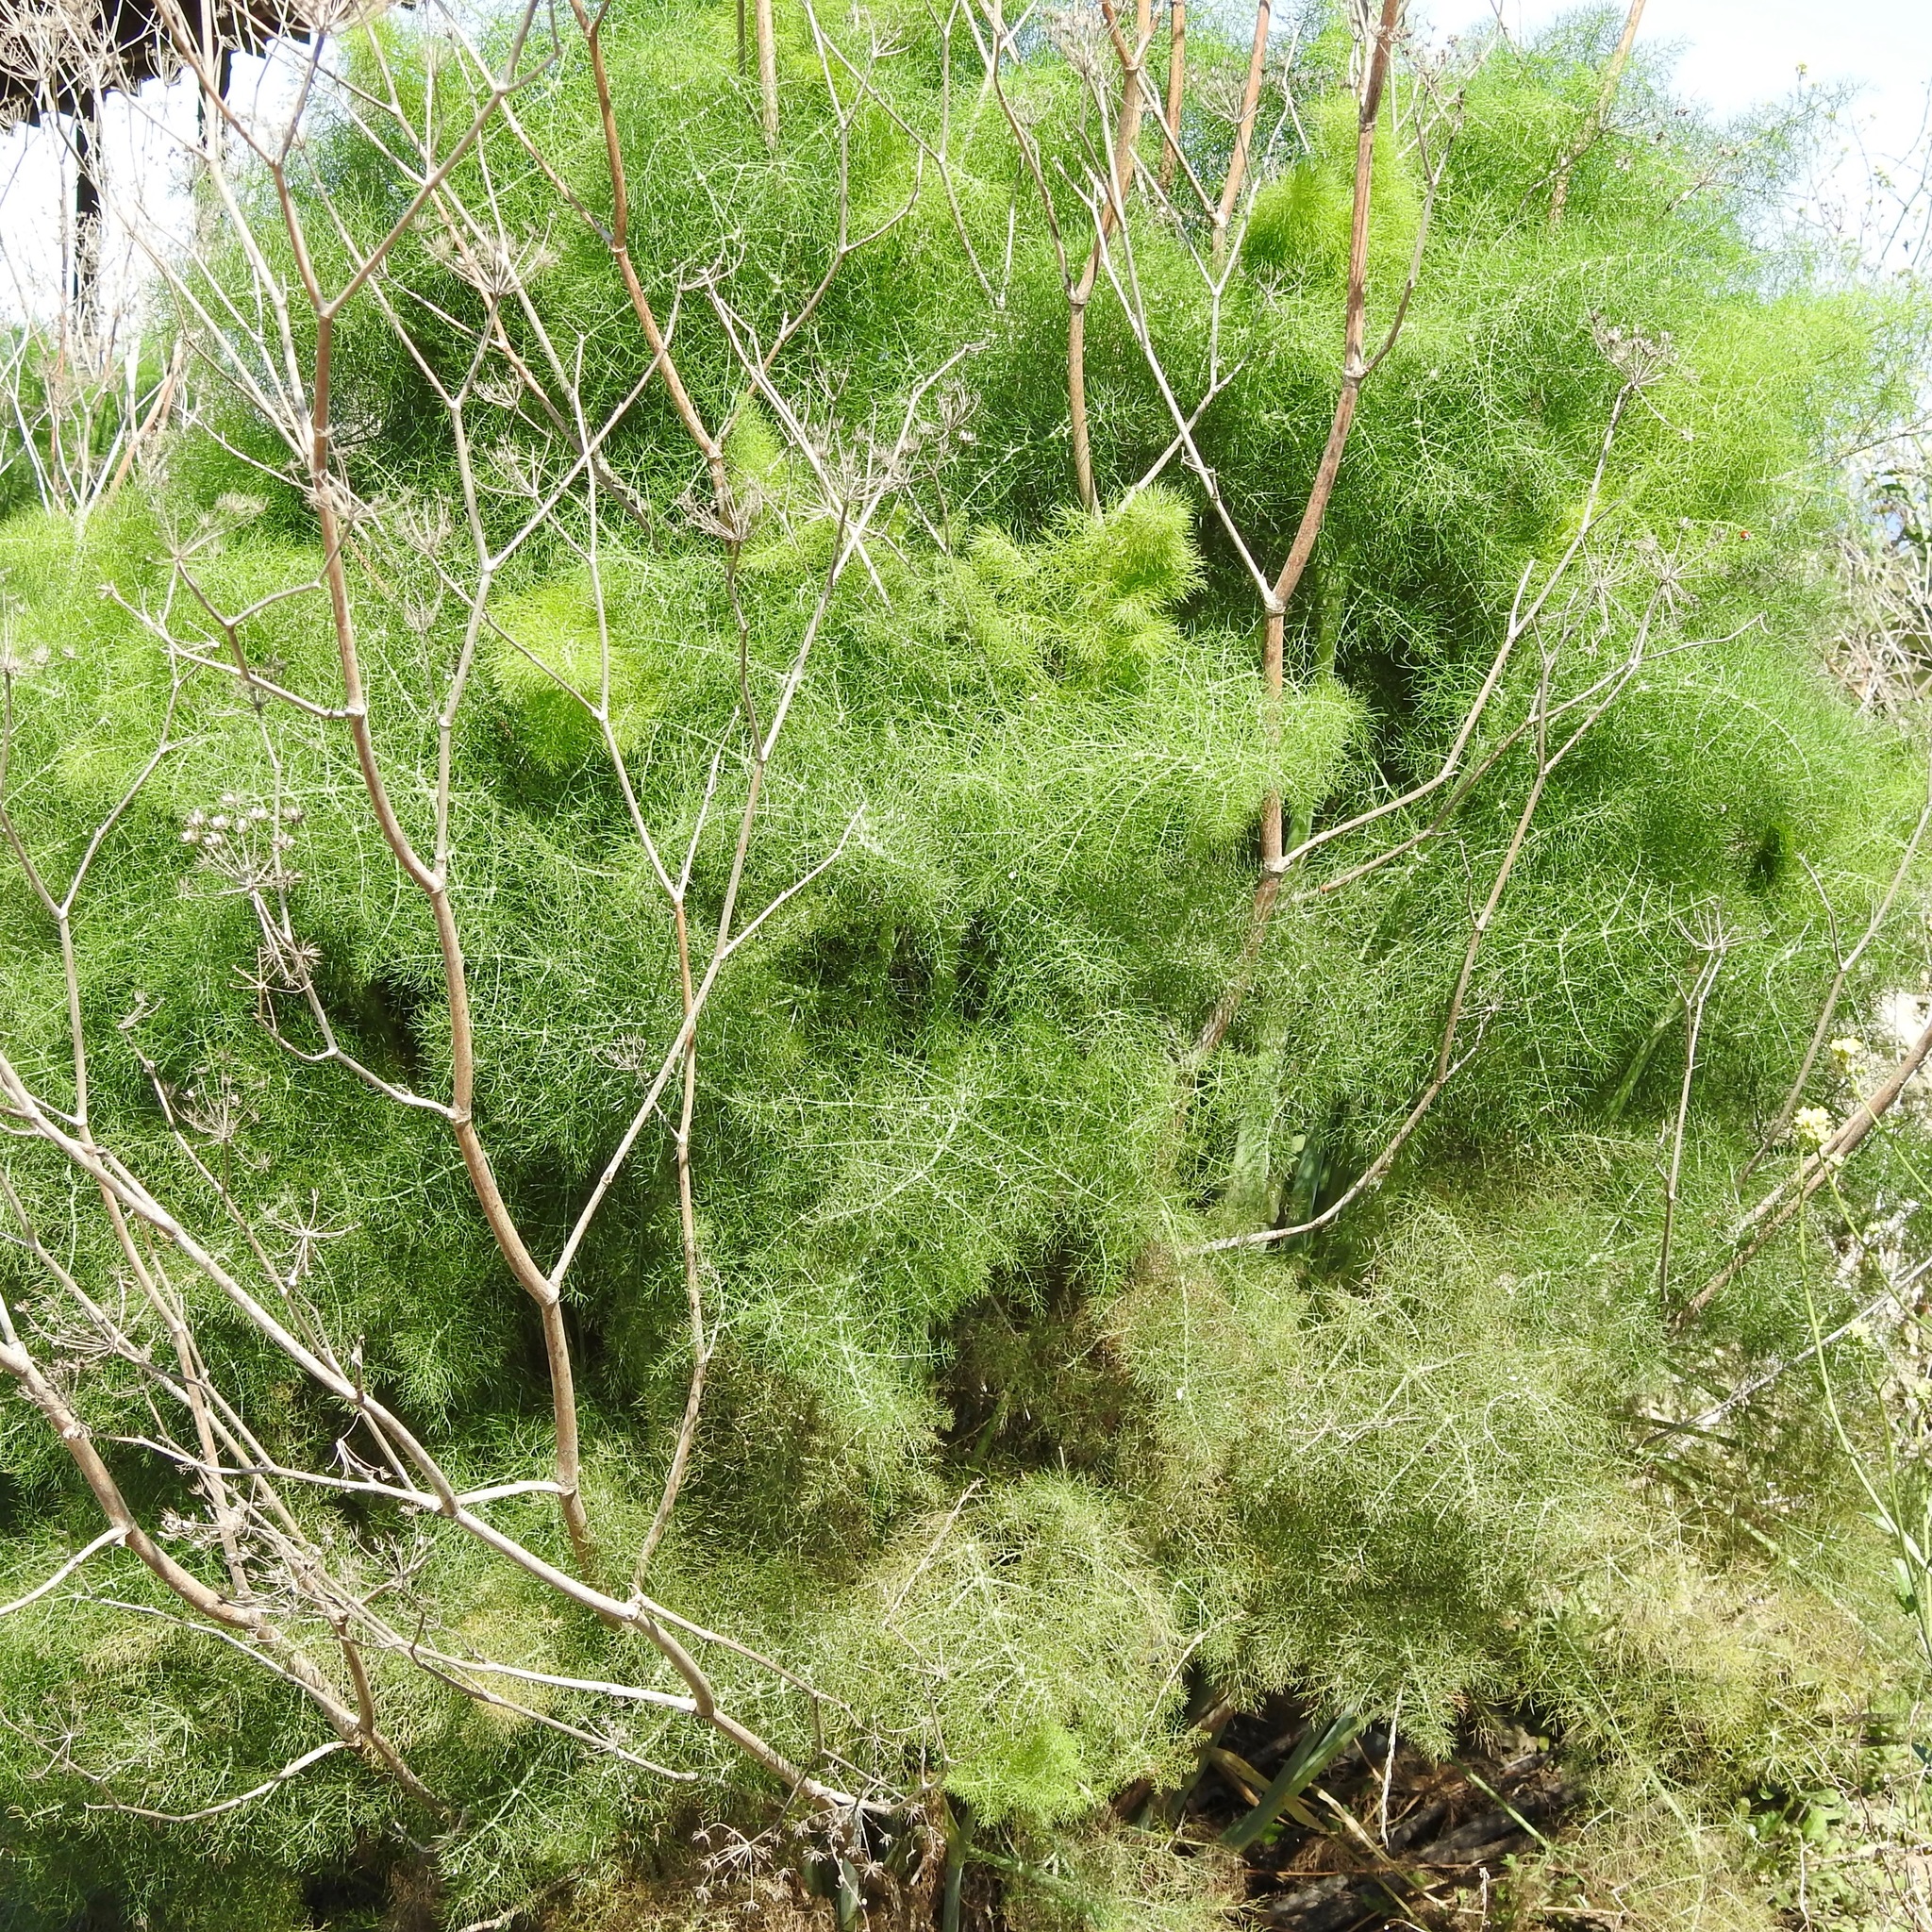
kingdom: Plantae
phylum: Tracheophyta
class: Magnoliopsida
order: Apiales
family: Apiaceae
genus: Foeniculum
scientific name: Foeniculum vulgare
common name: Fennel
